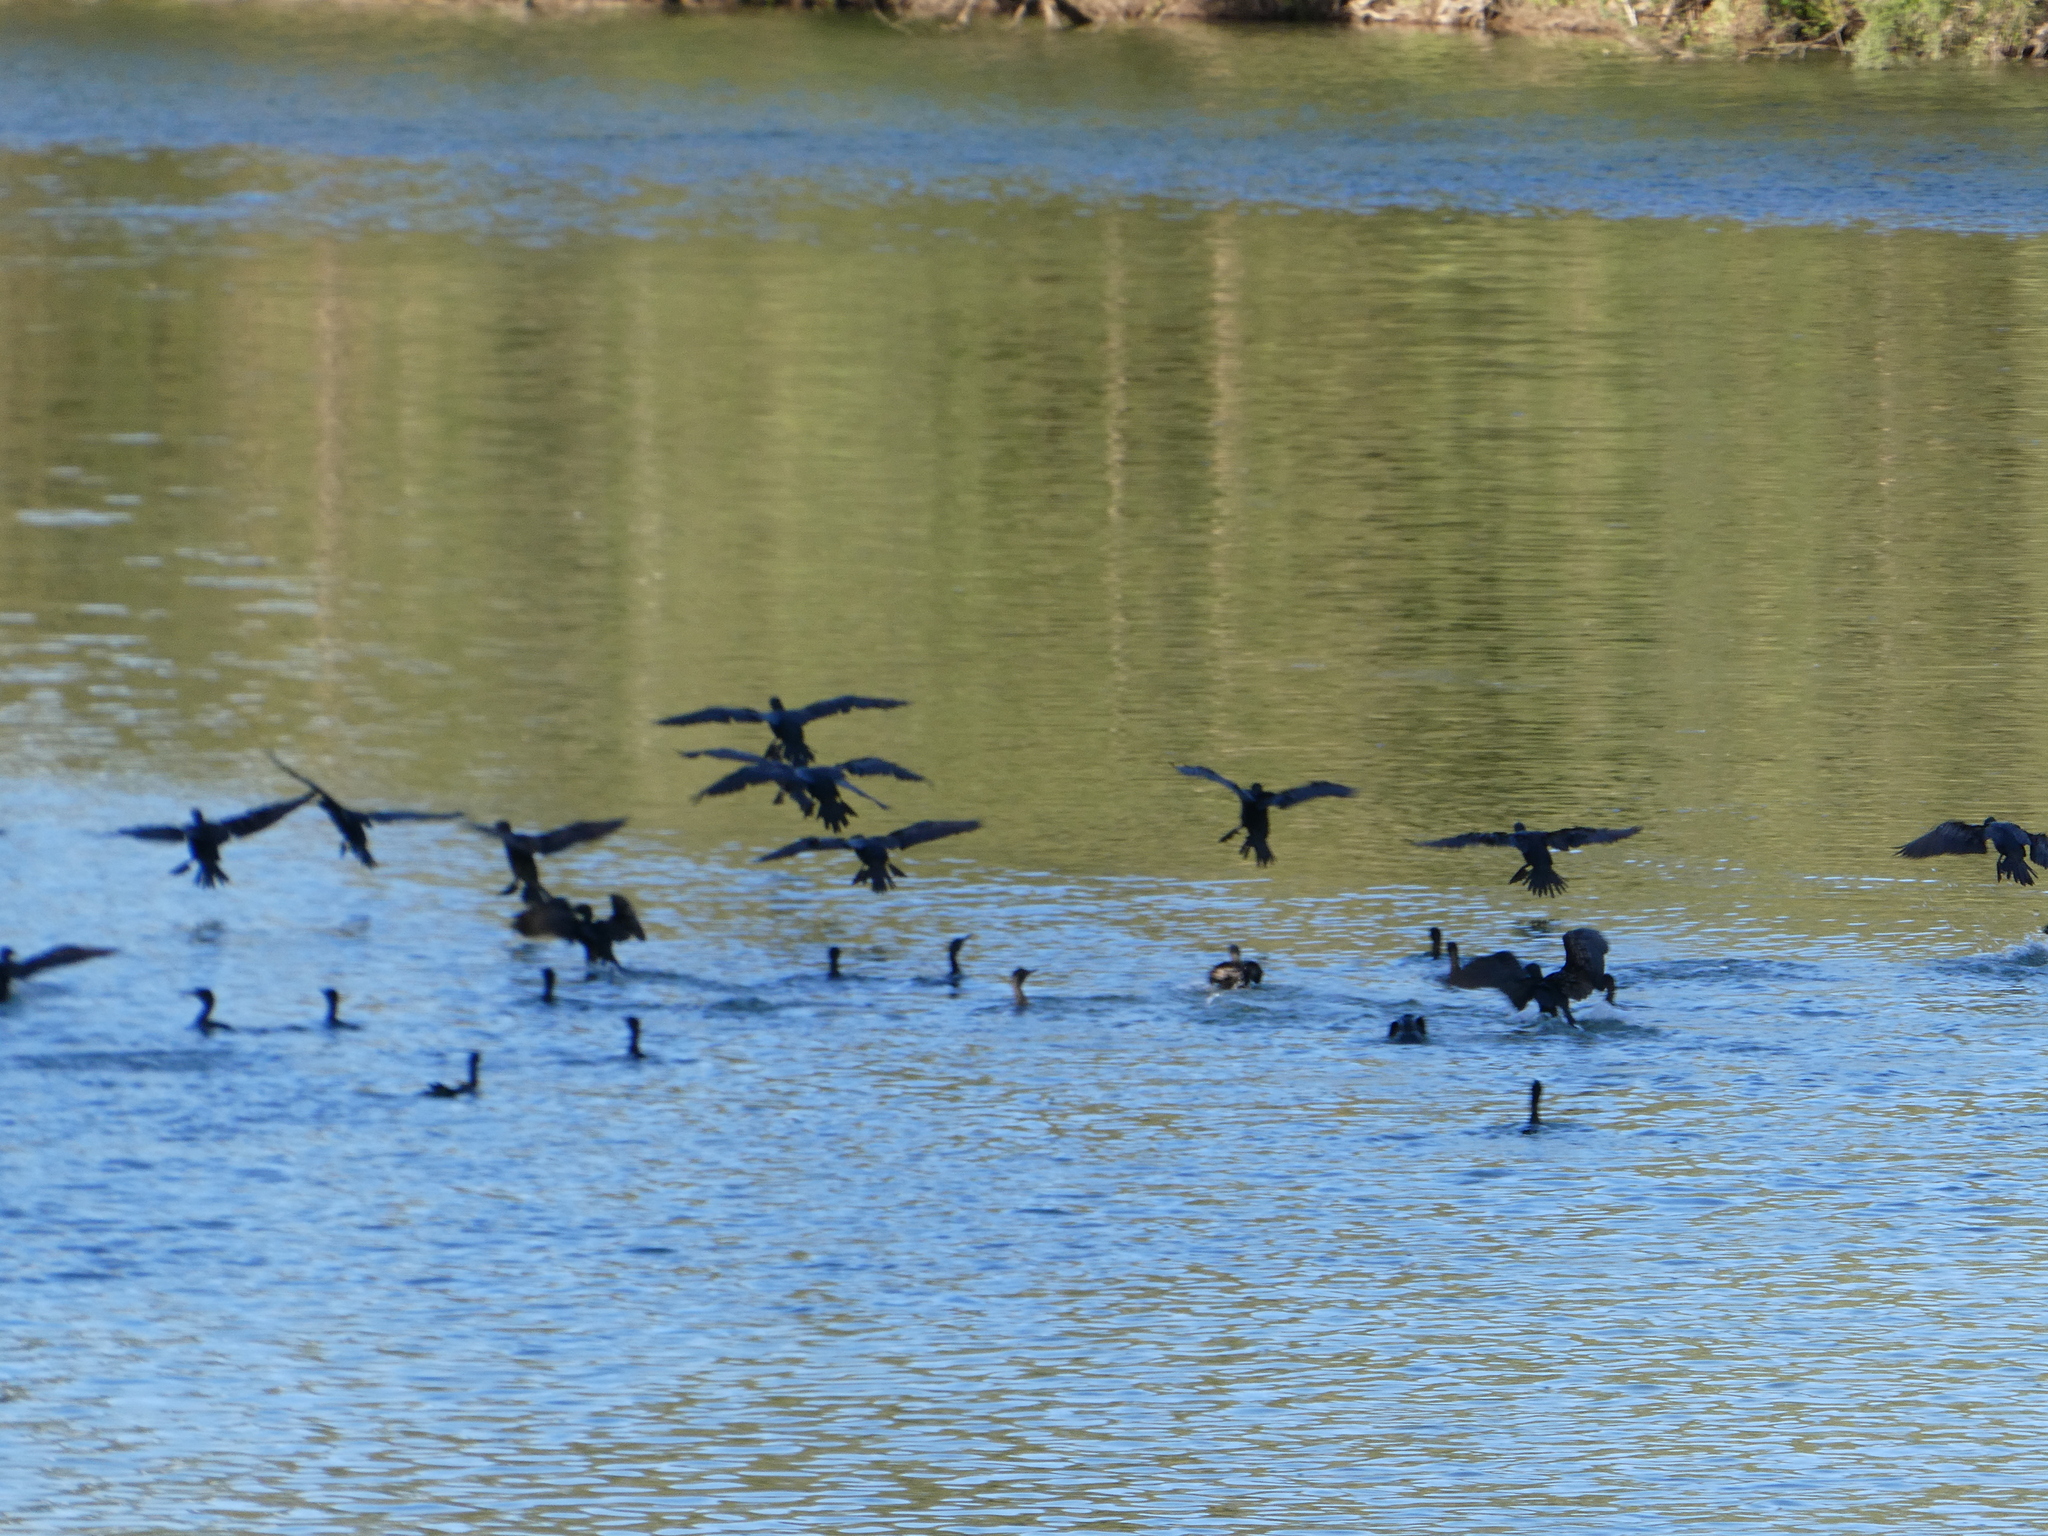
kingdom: Animalia
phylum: Chordata
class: Aves
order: Suliformes
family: Phalacrocoracidae
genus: Phalacrocorax
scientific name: Phalacrocorax sulcirostris
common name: Little black cormorant
